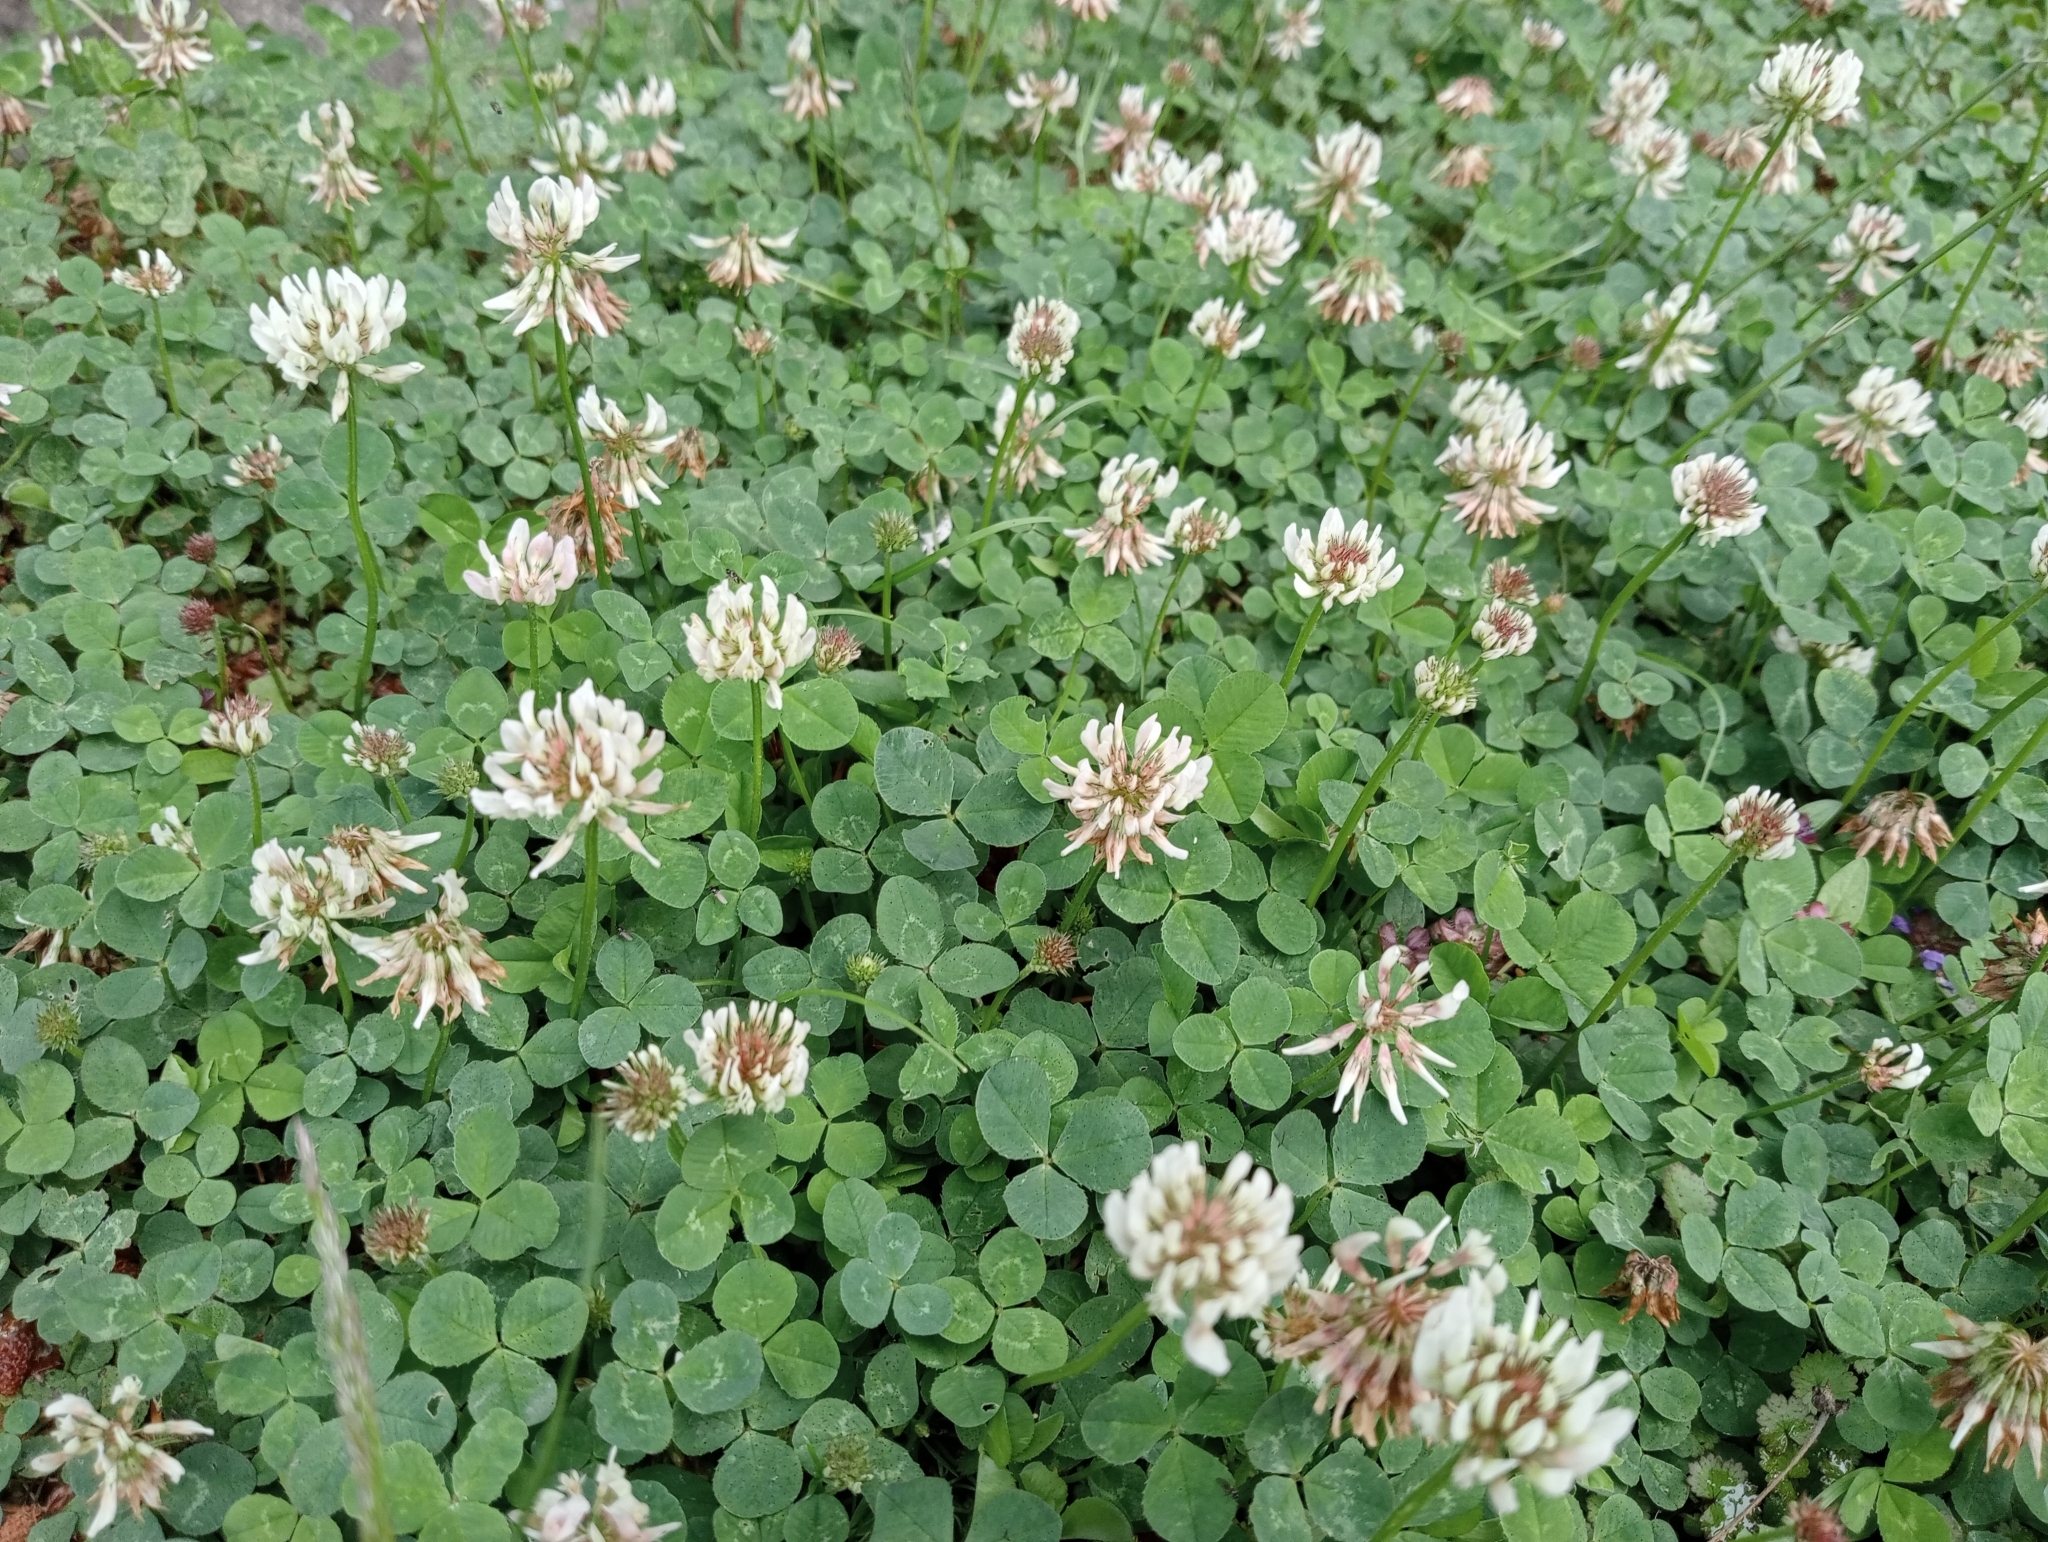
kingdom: Plantae
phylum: Tracheophyta
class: Magnoliopsida
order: Fabales
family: Fabaceae
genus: Trifolium
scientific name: Trifolium repens
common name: White clover
